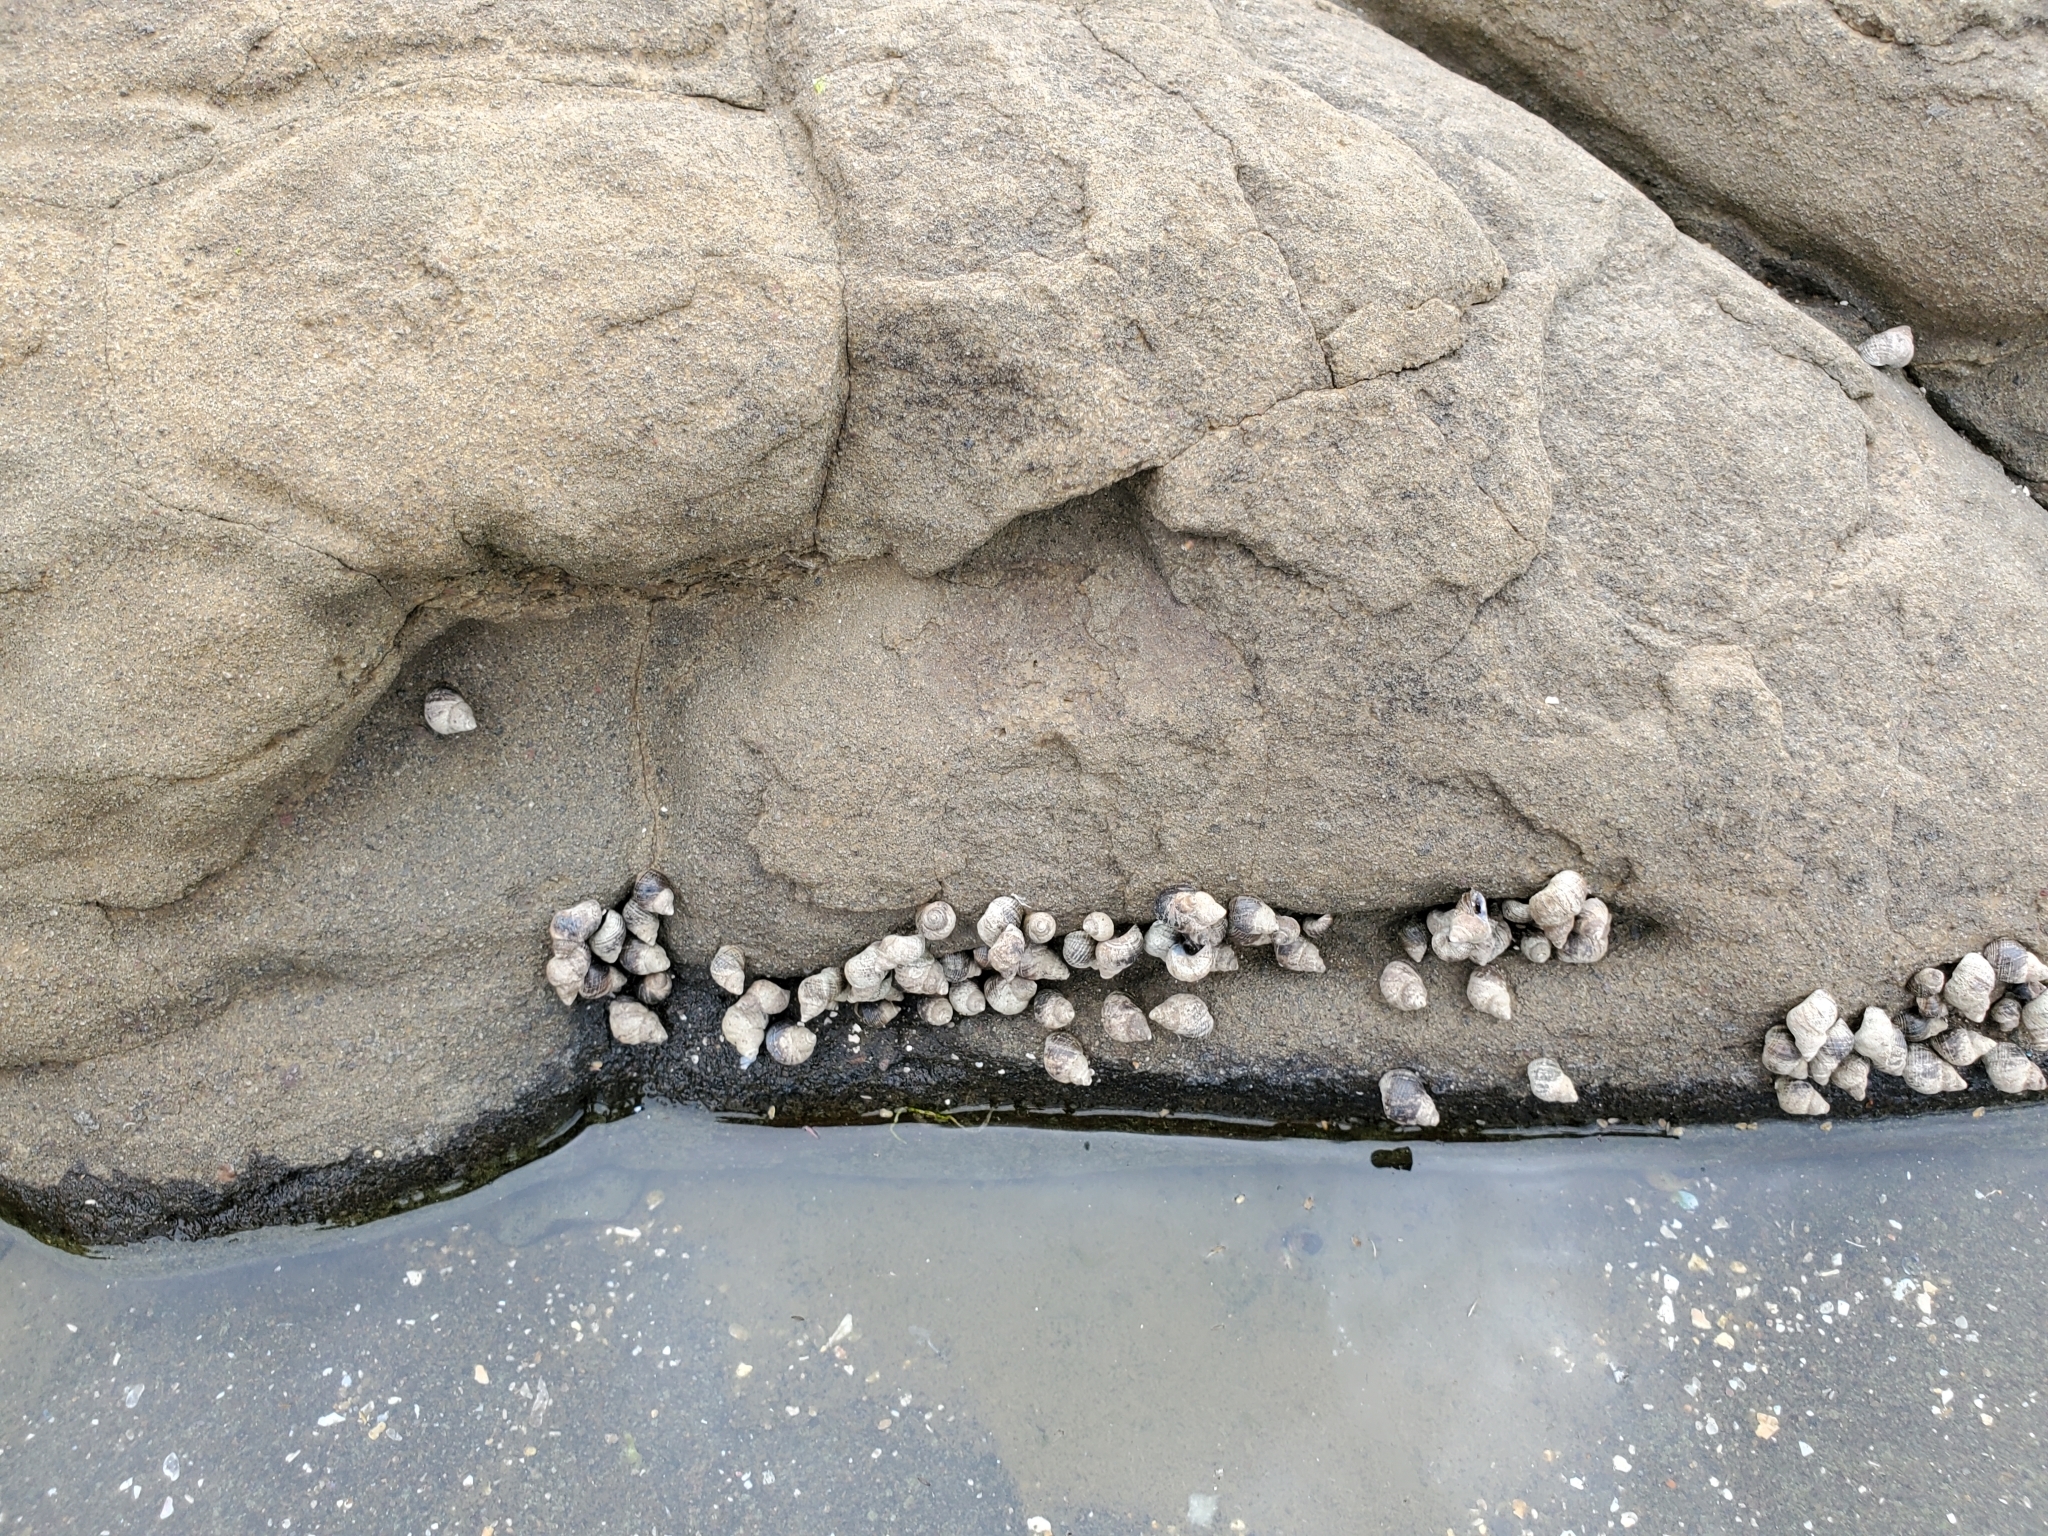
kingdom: Animalia
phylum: Mollusca
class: Gastropoda
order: Littorinimorpha
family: Littorinidae
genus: Austrolittorina
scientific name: Austrolittorina cincta
